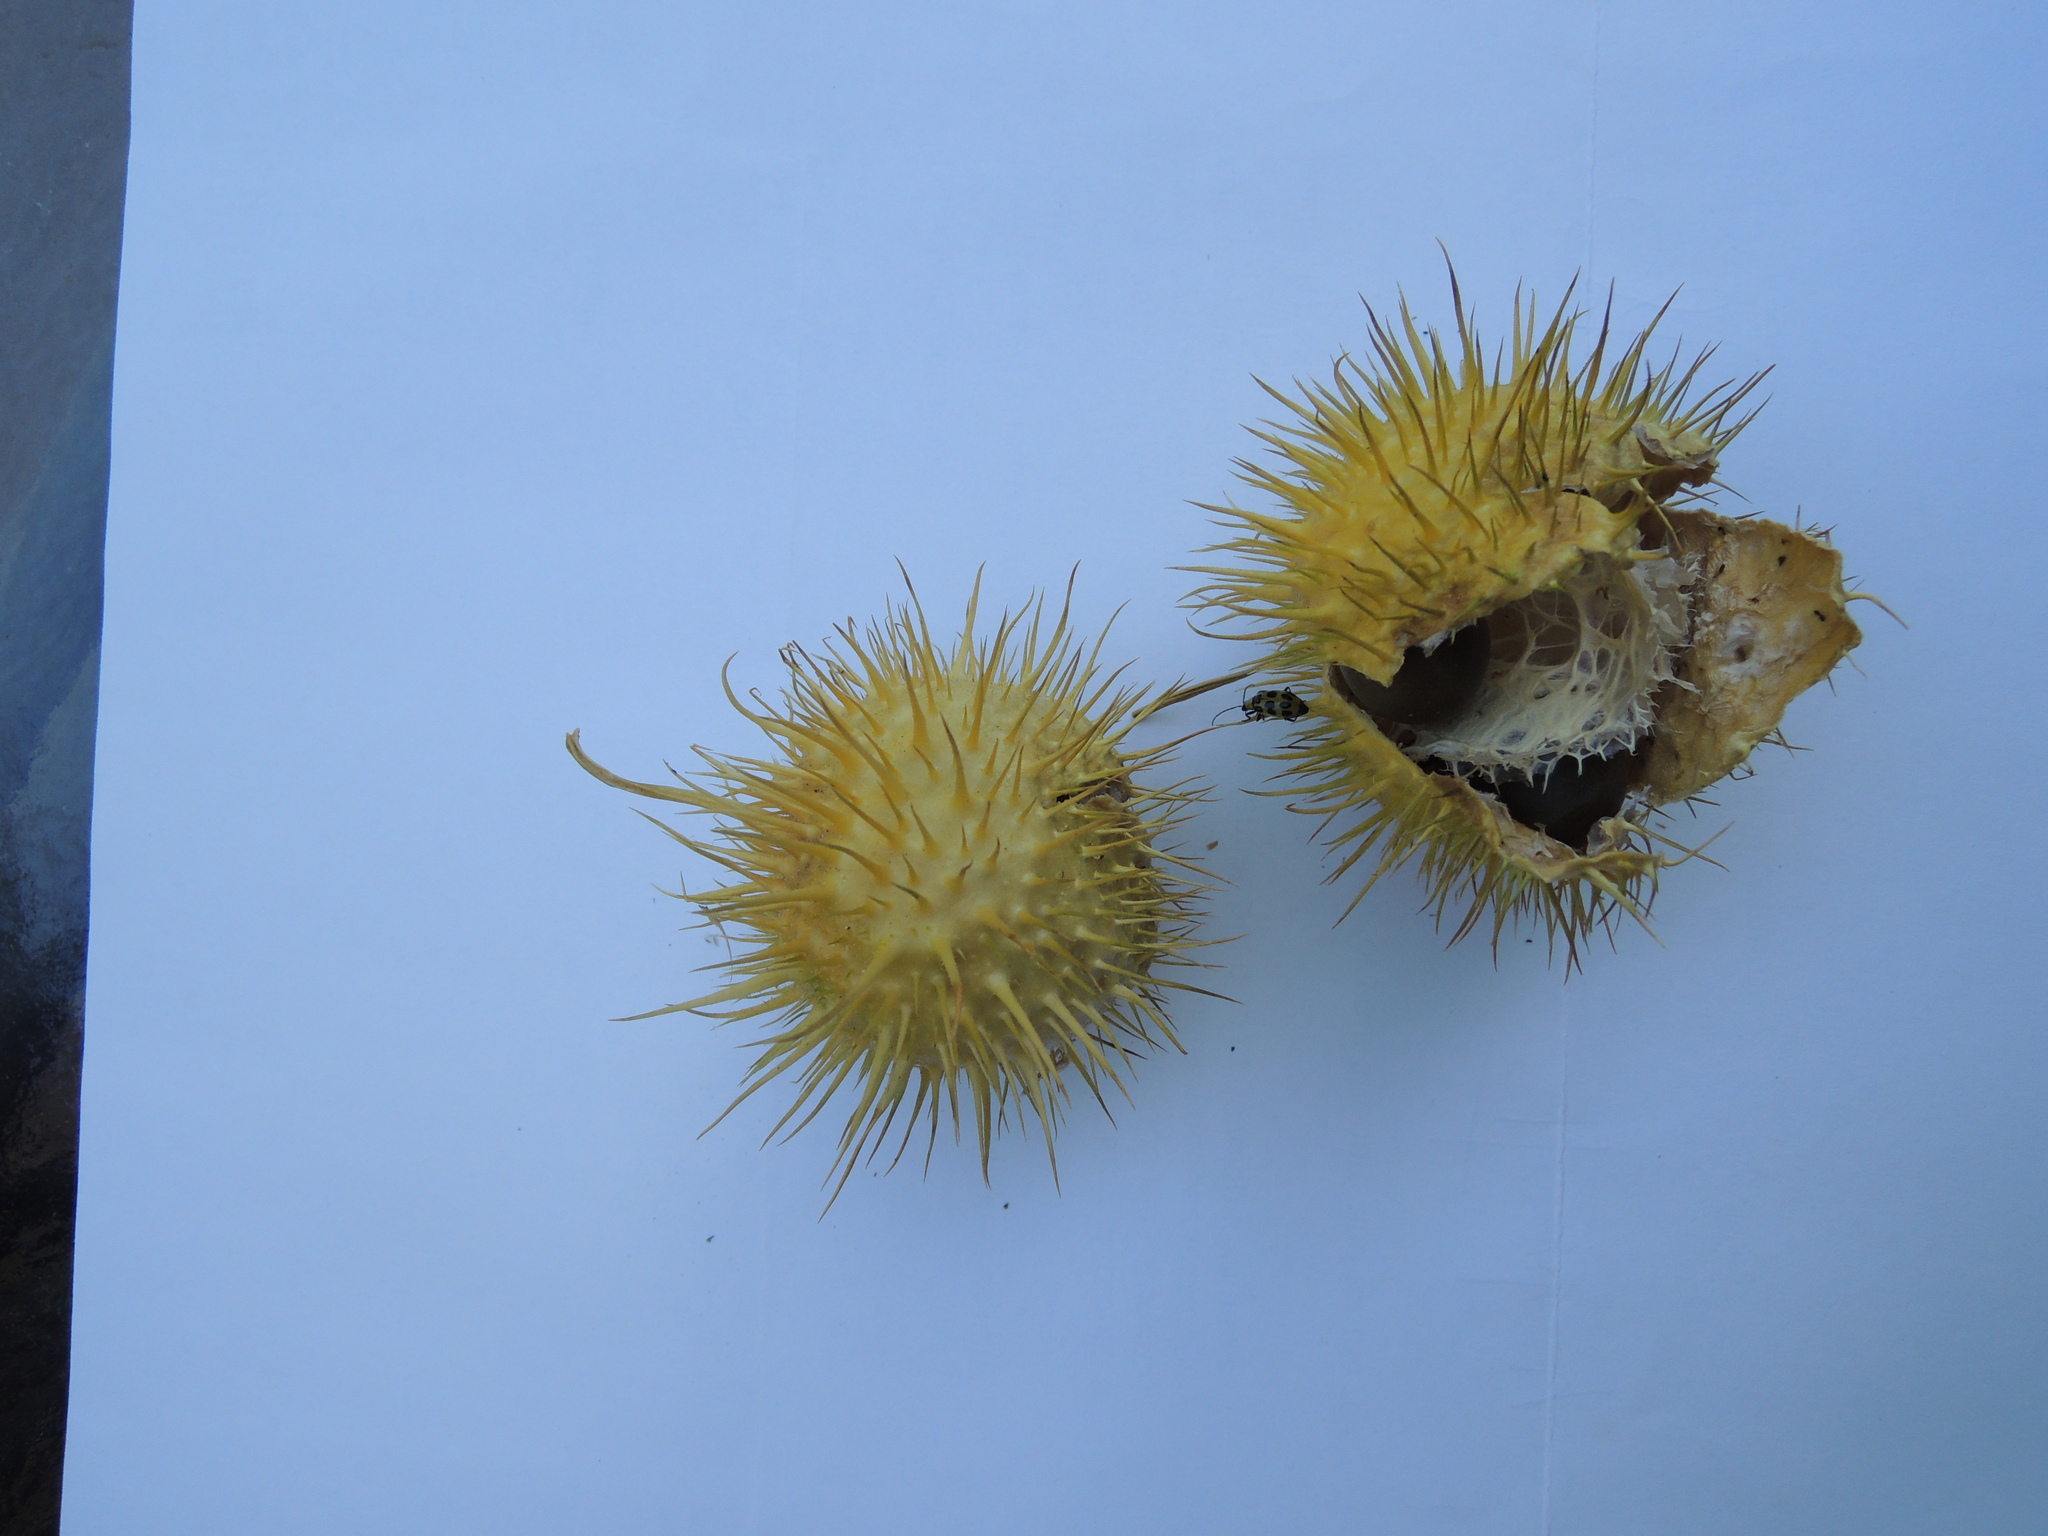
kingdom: Plantae
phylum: Tracheophyta
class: Magnoliopsida
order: Cucurbitales
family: Cucurbitaceae
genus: Marah
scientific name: Marah fabacea
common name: California manroot
